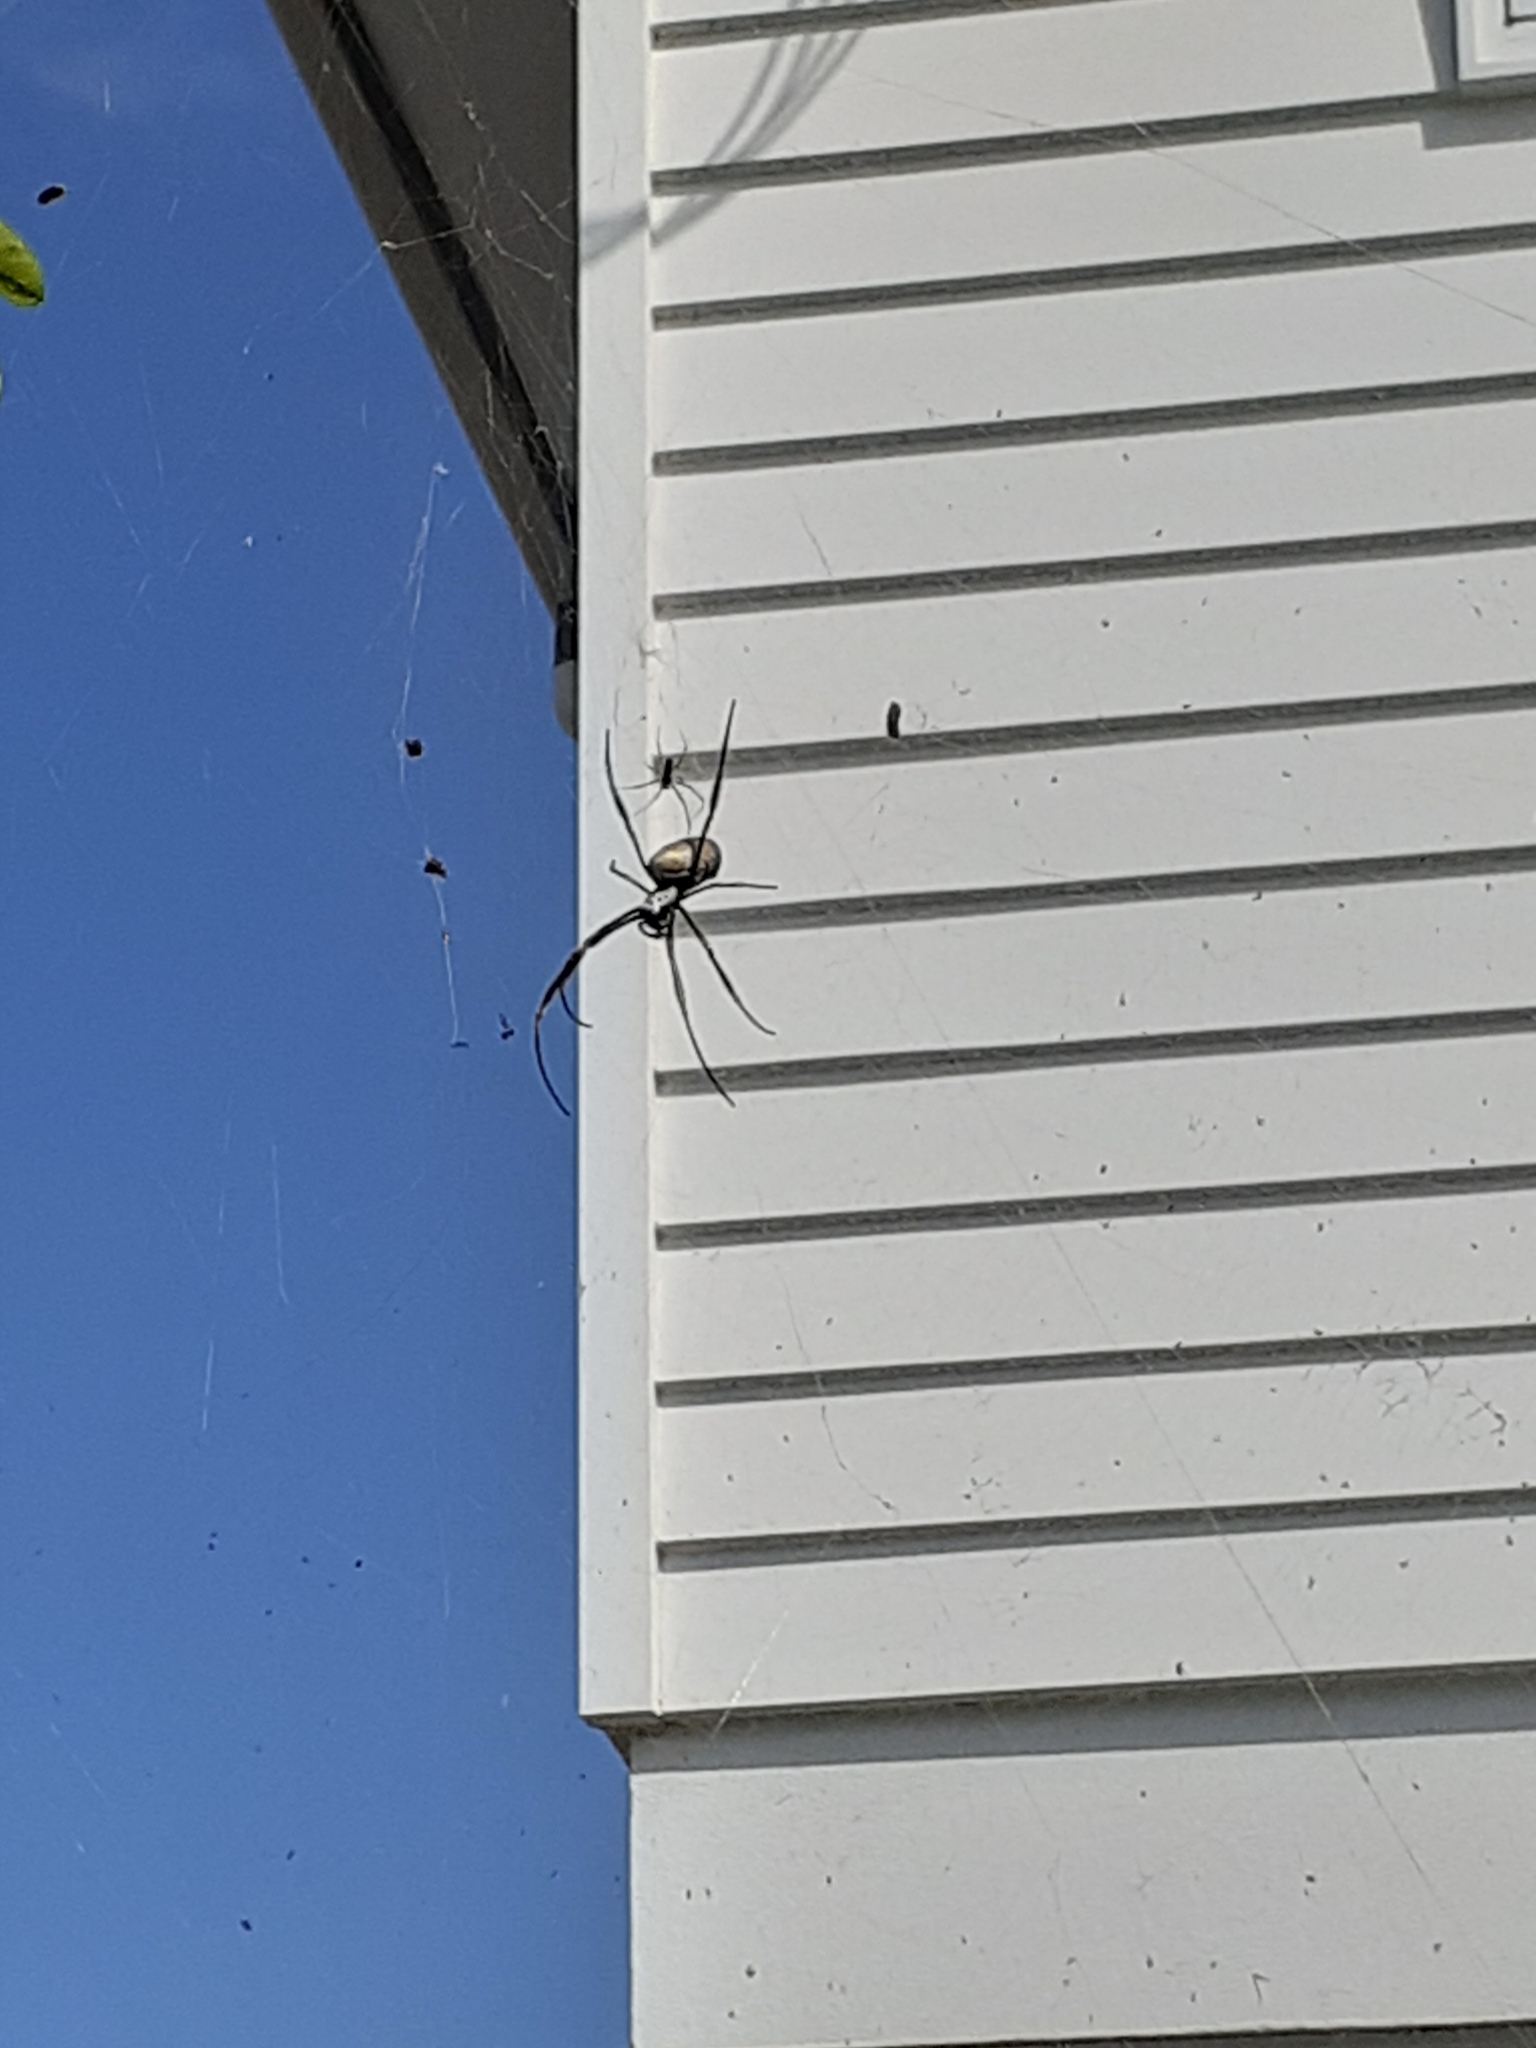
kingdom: Animalia
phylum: Arthropoda
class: Arachnida
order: Araneae
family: Araneidae
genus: Trichonephila
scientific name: Trichonephila plumipes
